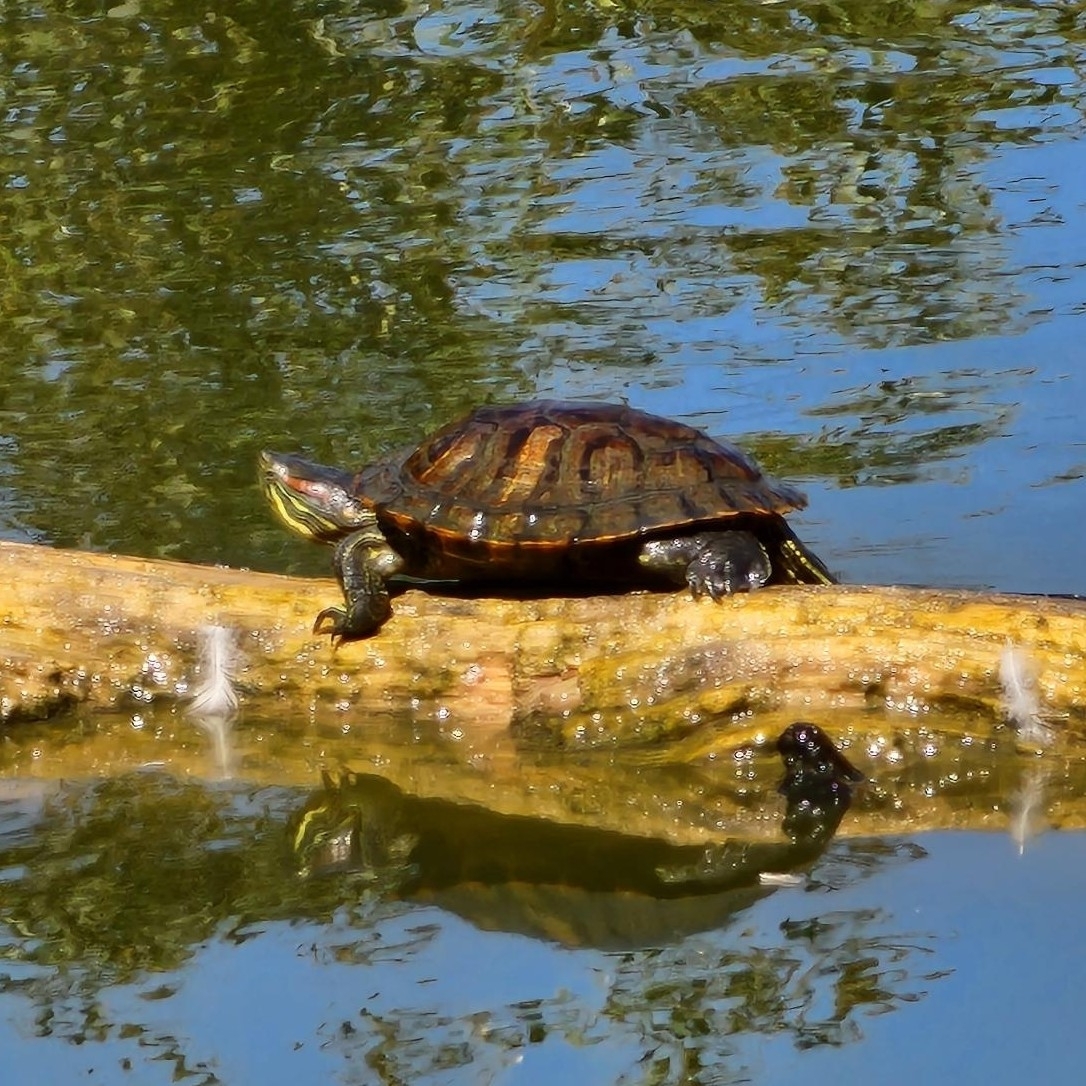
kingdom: Animalia
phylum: Chordata
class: Testudines
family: Emydidae
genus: Trachemys
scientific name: Trachemys scripta
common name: Slider
